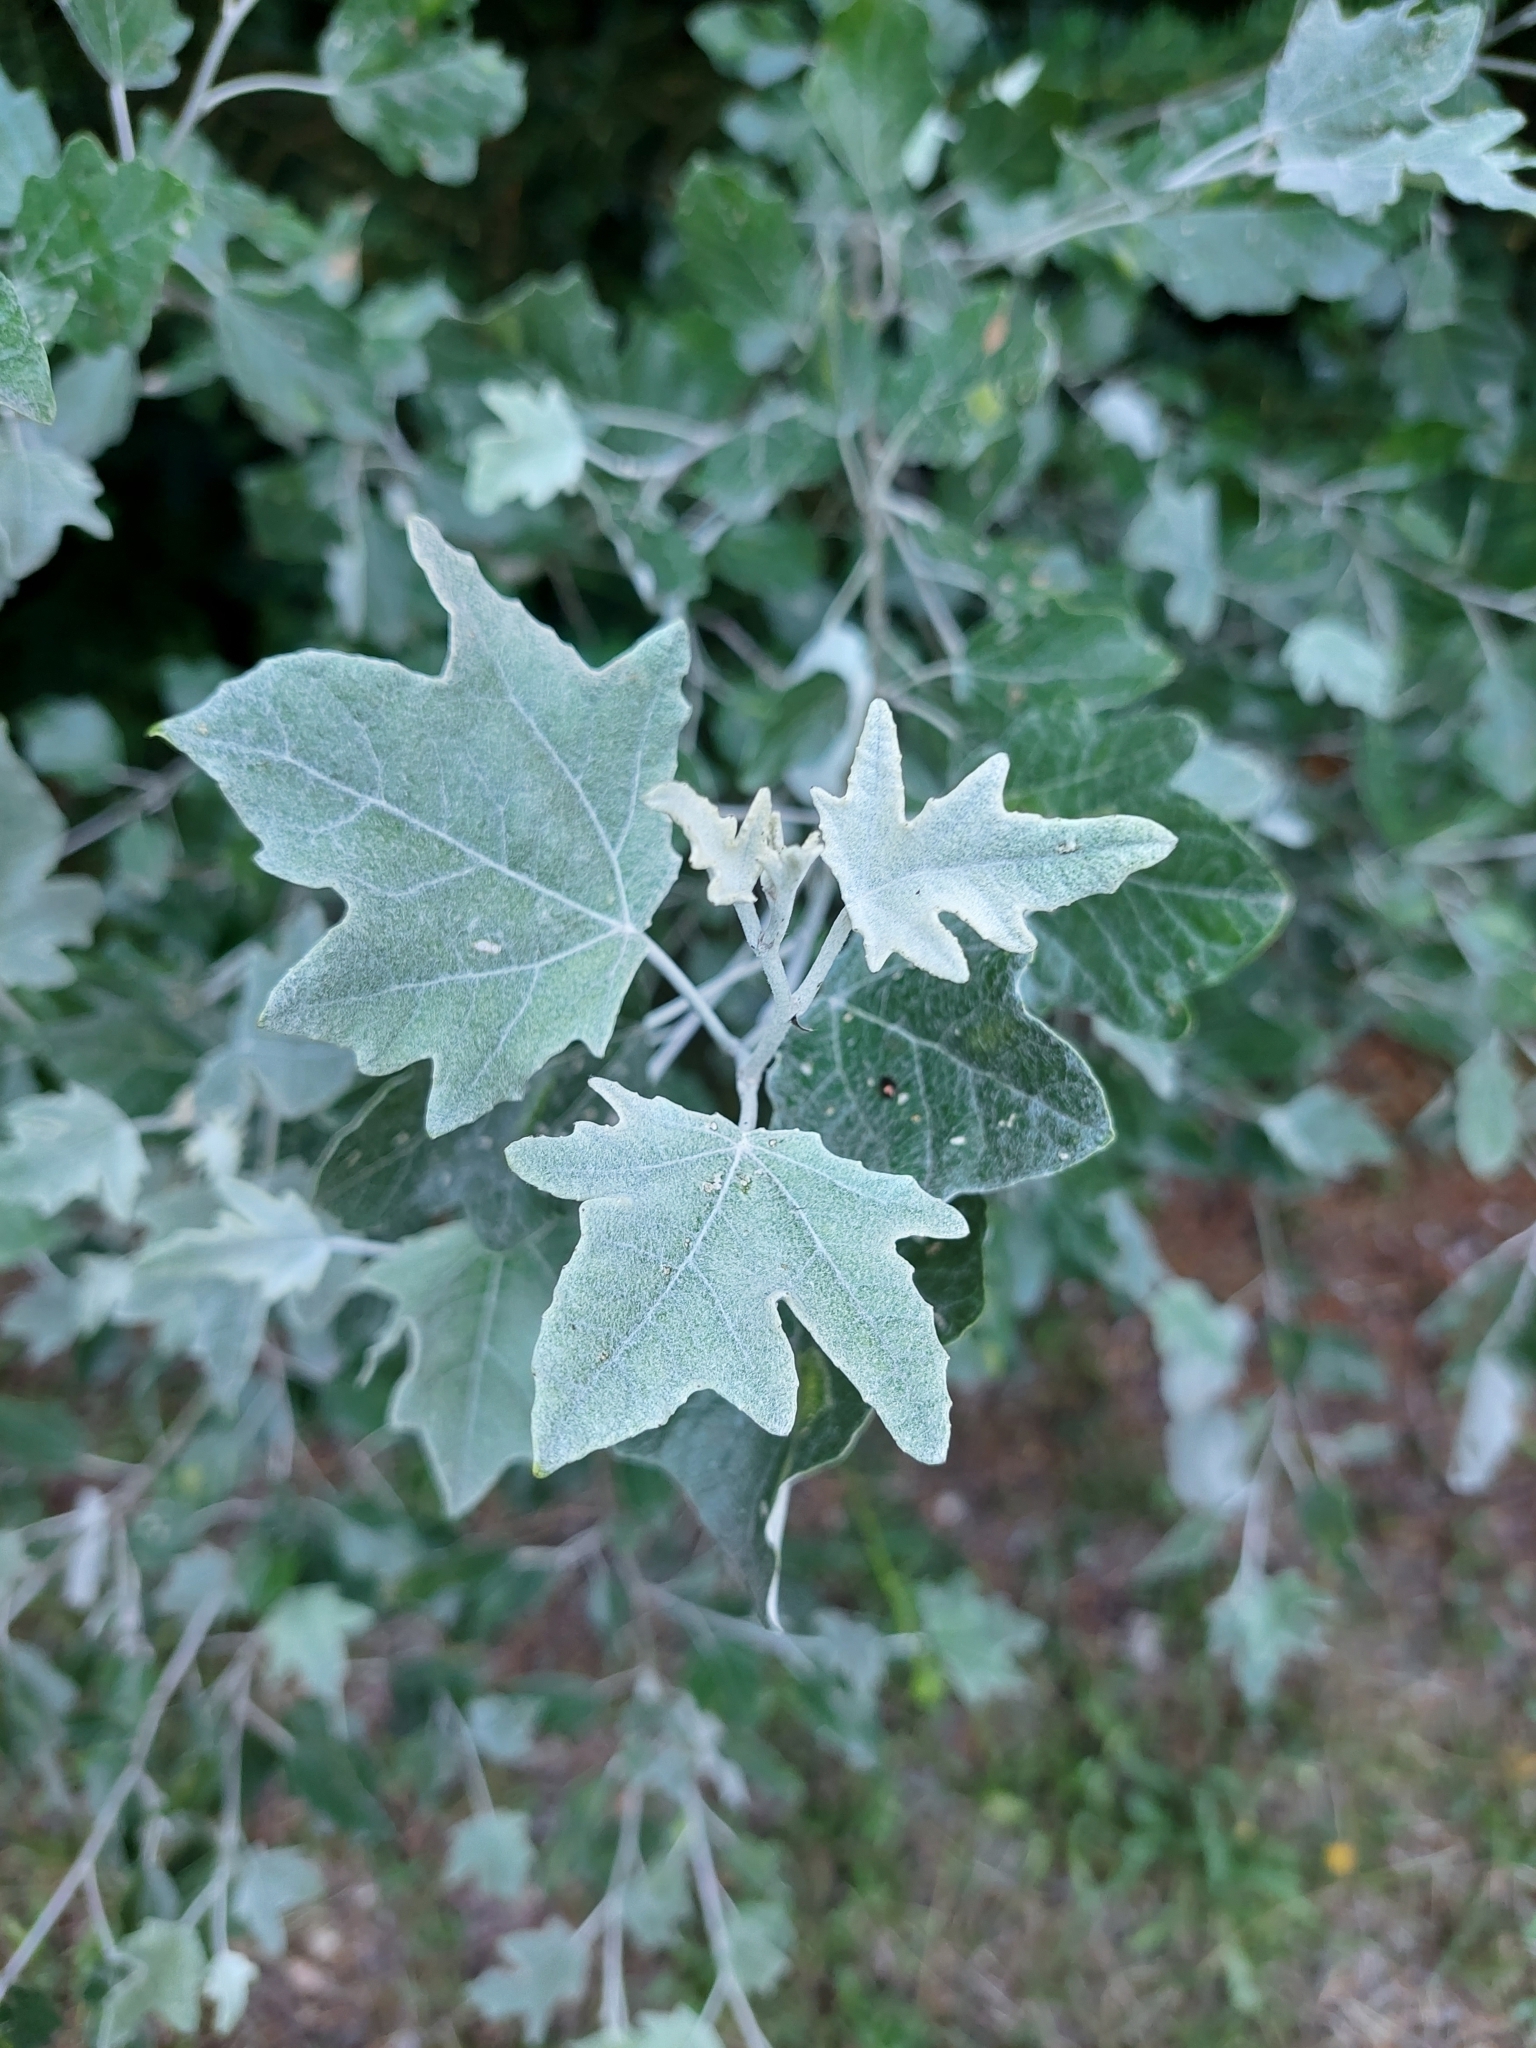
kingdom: Plantae
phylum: Tracheophyta
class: Magnoliopsida
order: Malpighiales
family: Salicaceae
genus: Populus
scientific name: Populus alba
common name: White poplar
